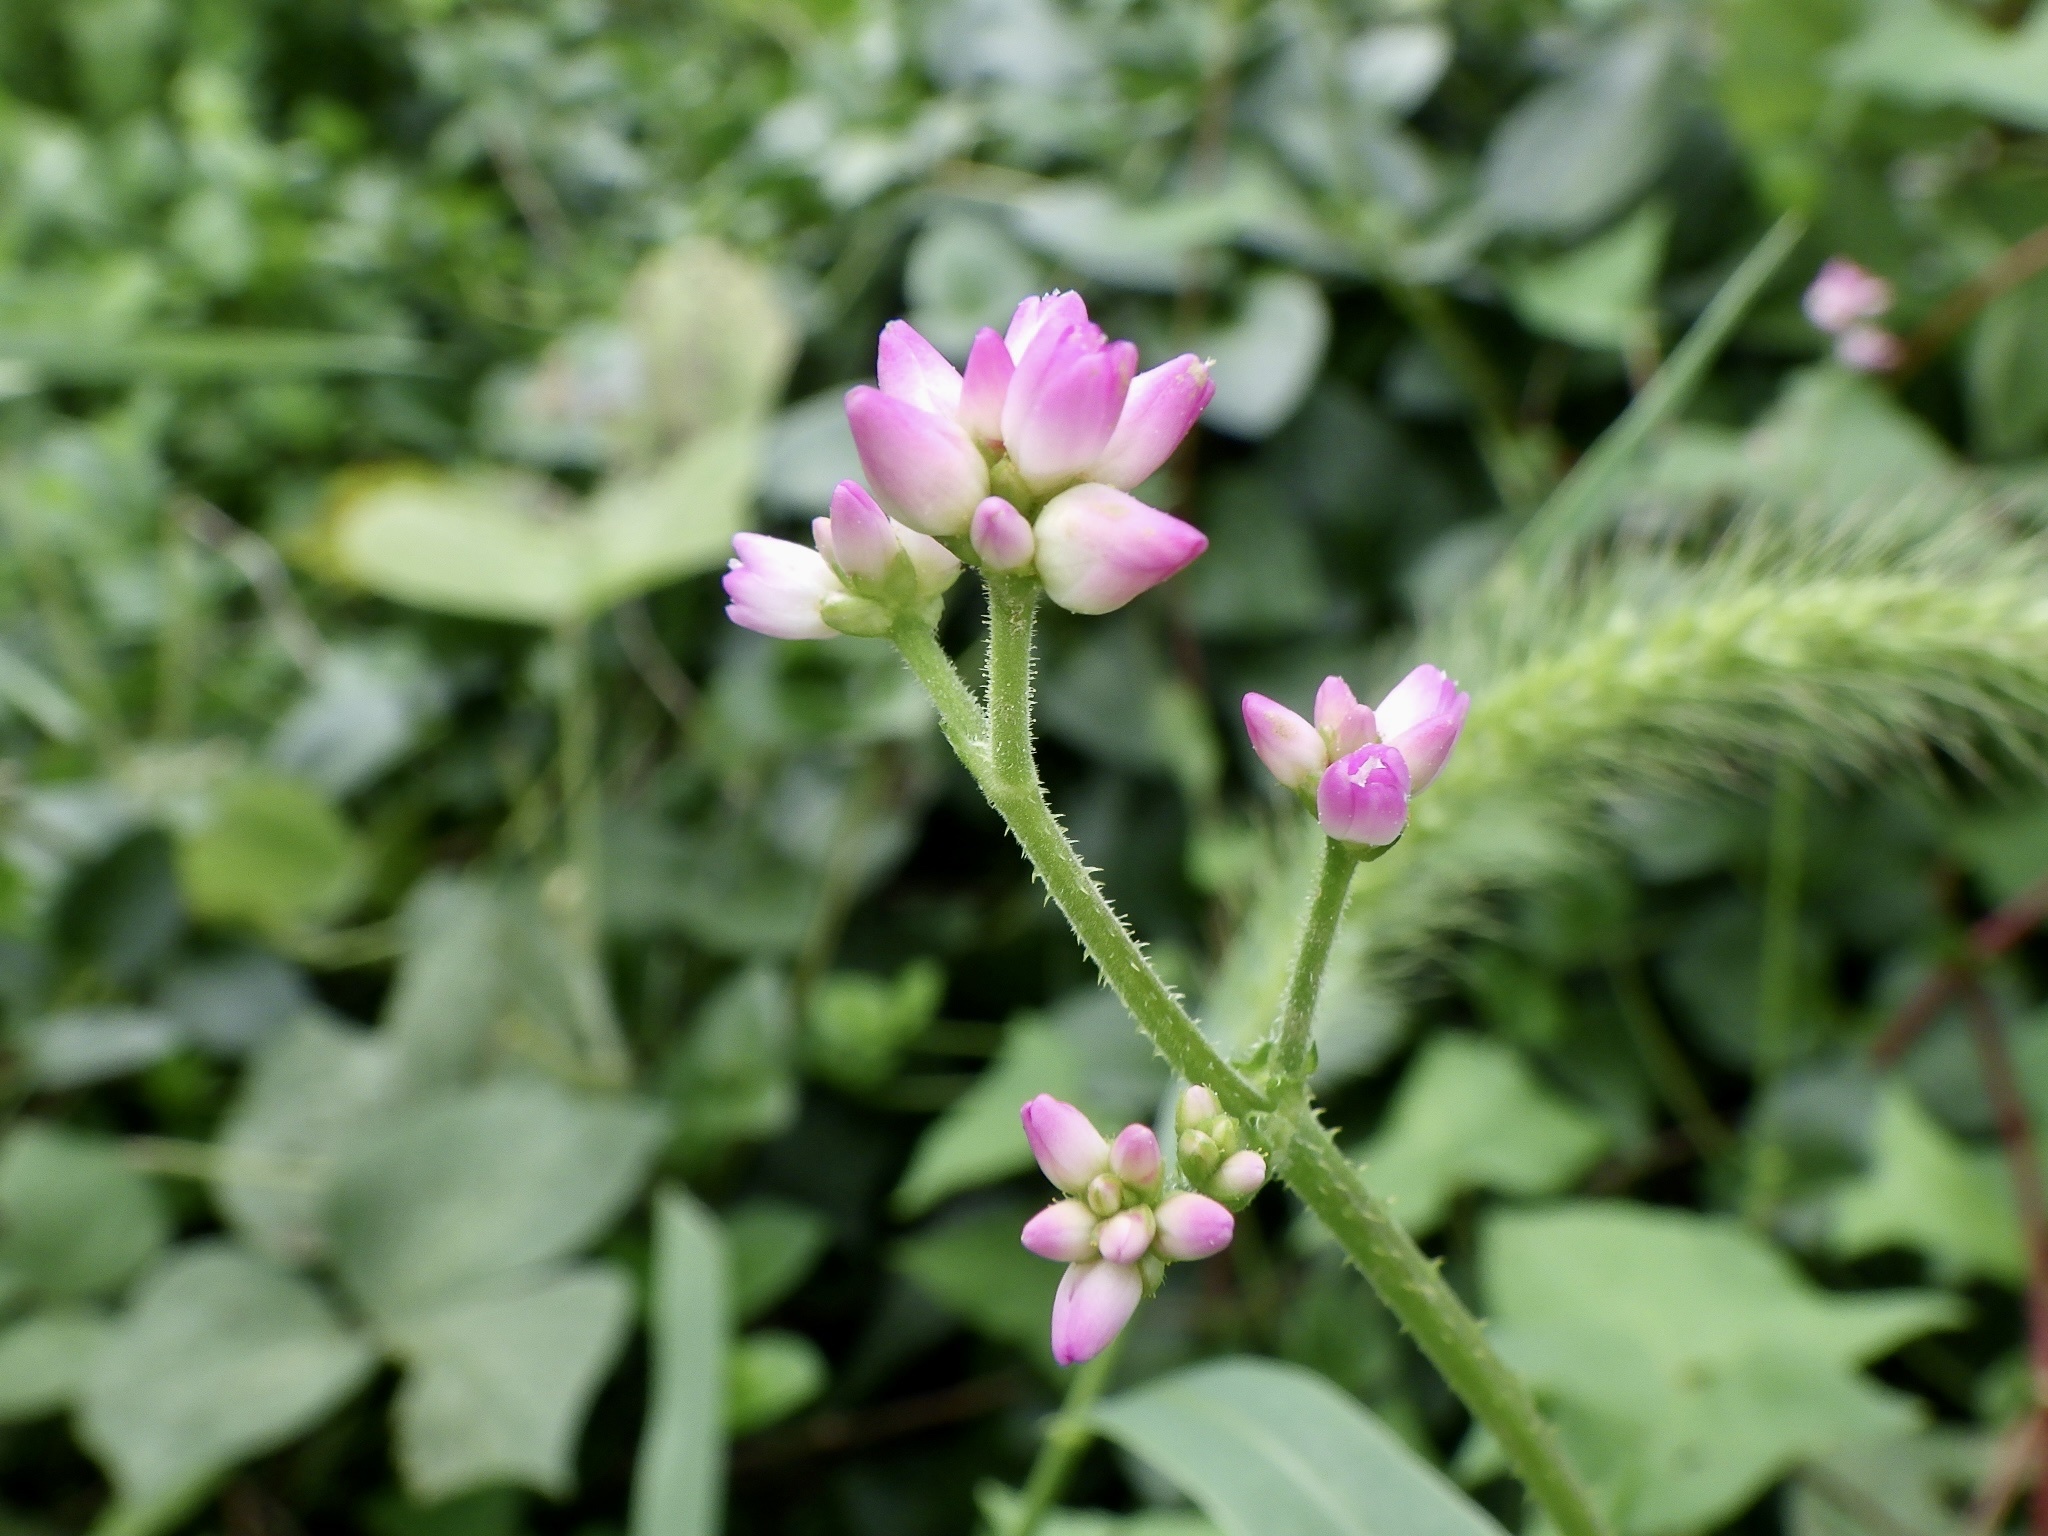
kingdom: Plantae
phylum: Tracheophyta
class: Magnoliopsida
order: Caryophyllales
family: Polygonaceae
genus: Persicaria
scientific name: Persicaria senticosa
